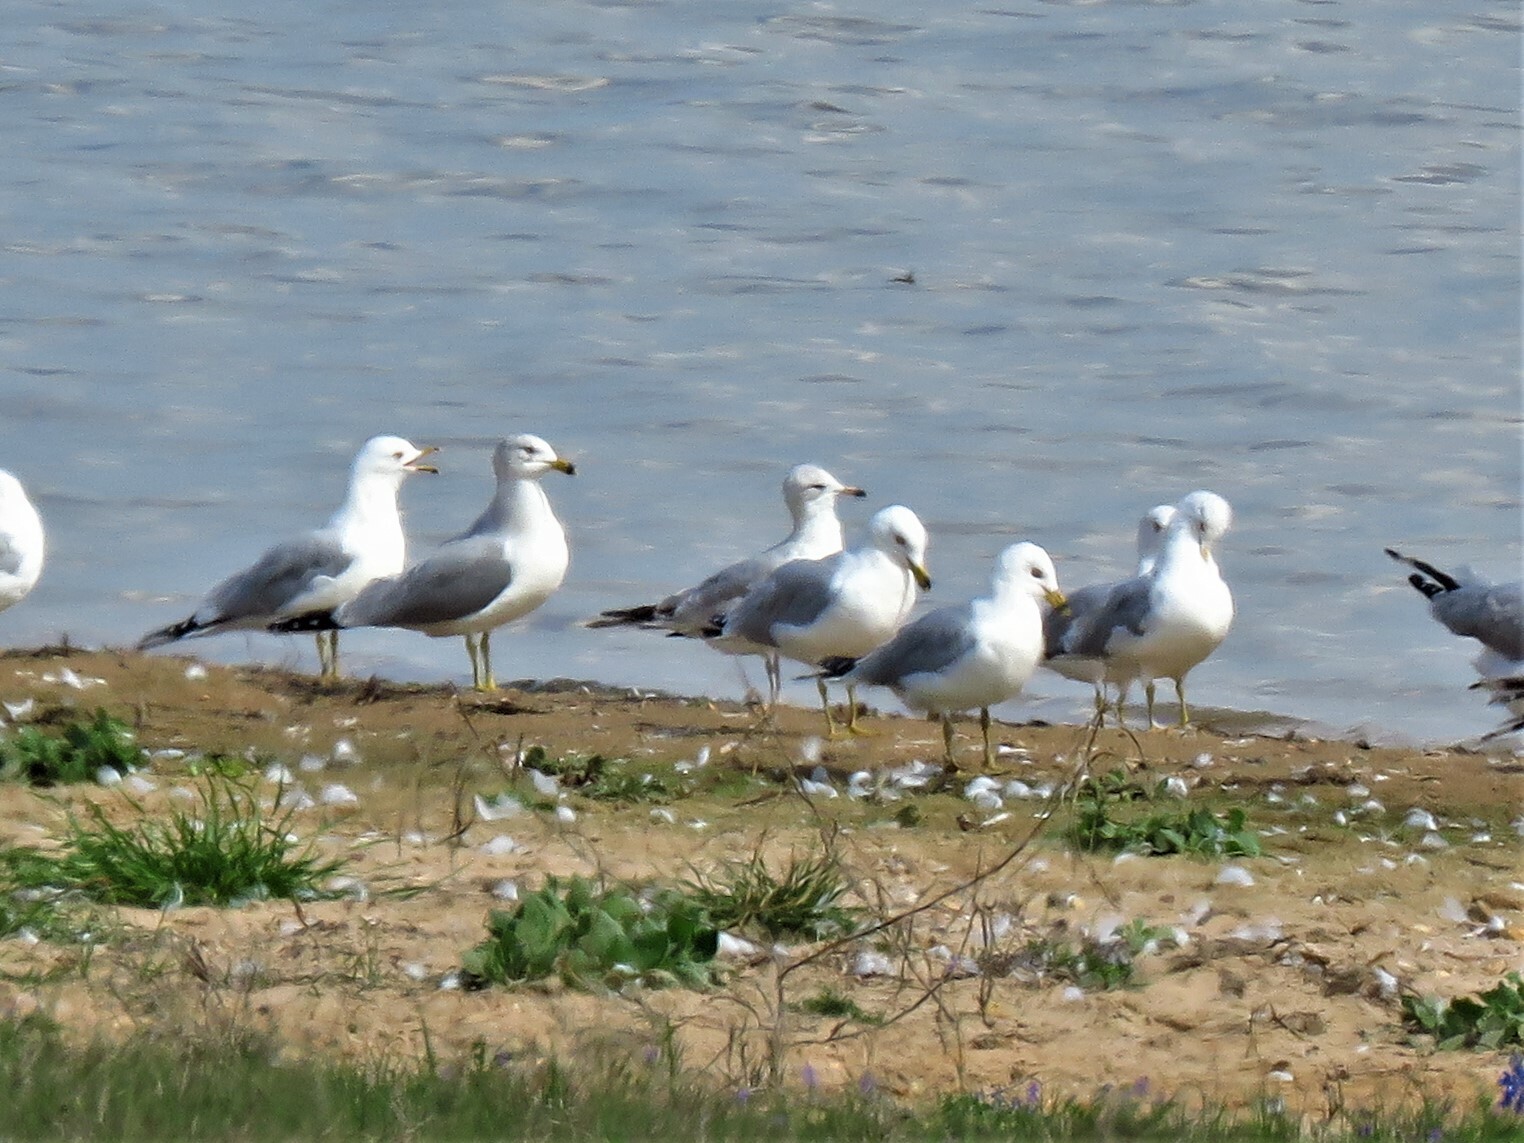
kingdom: Animalia
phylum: Chordata
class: Aves
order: Charadriiformes
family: Laridae
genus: Larus
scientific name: Larus delawarensis
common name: Ring-billed gull
